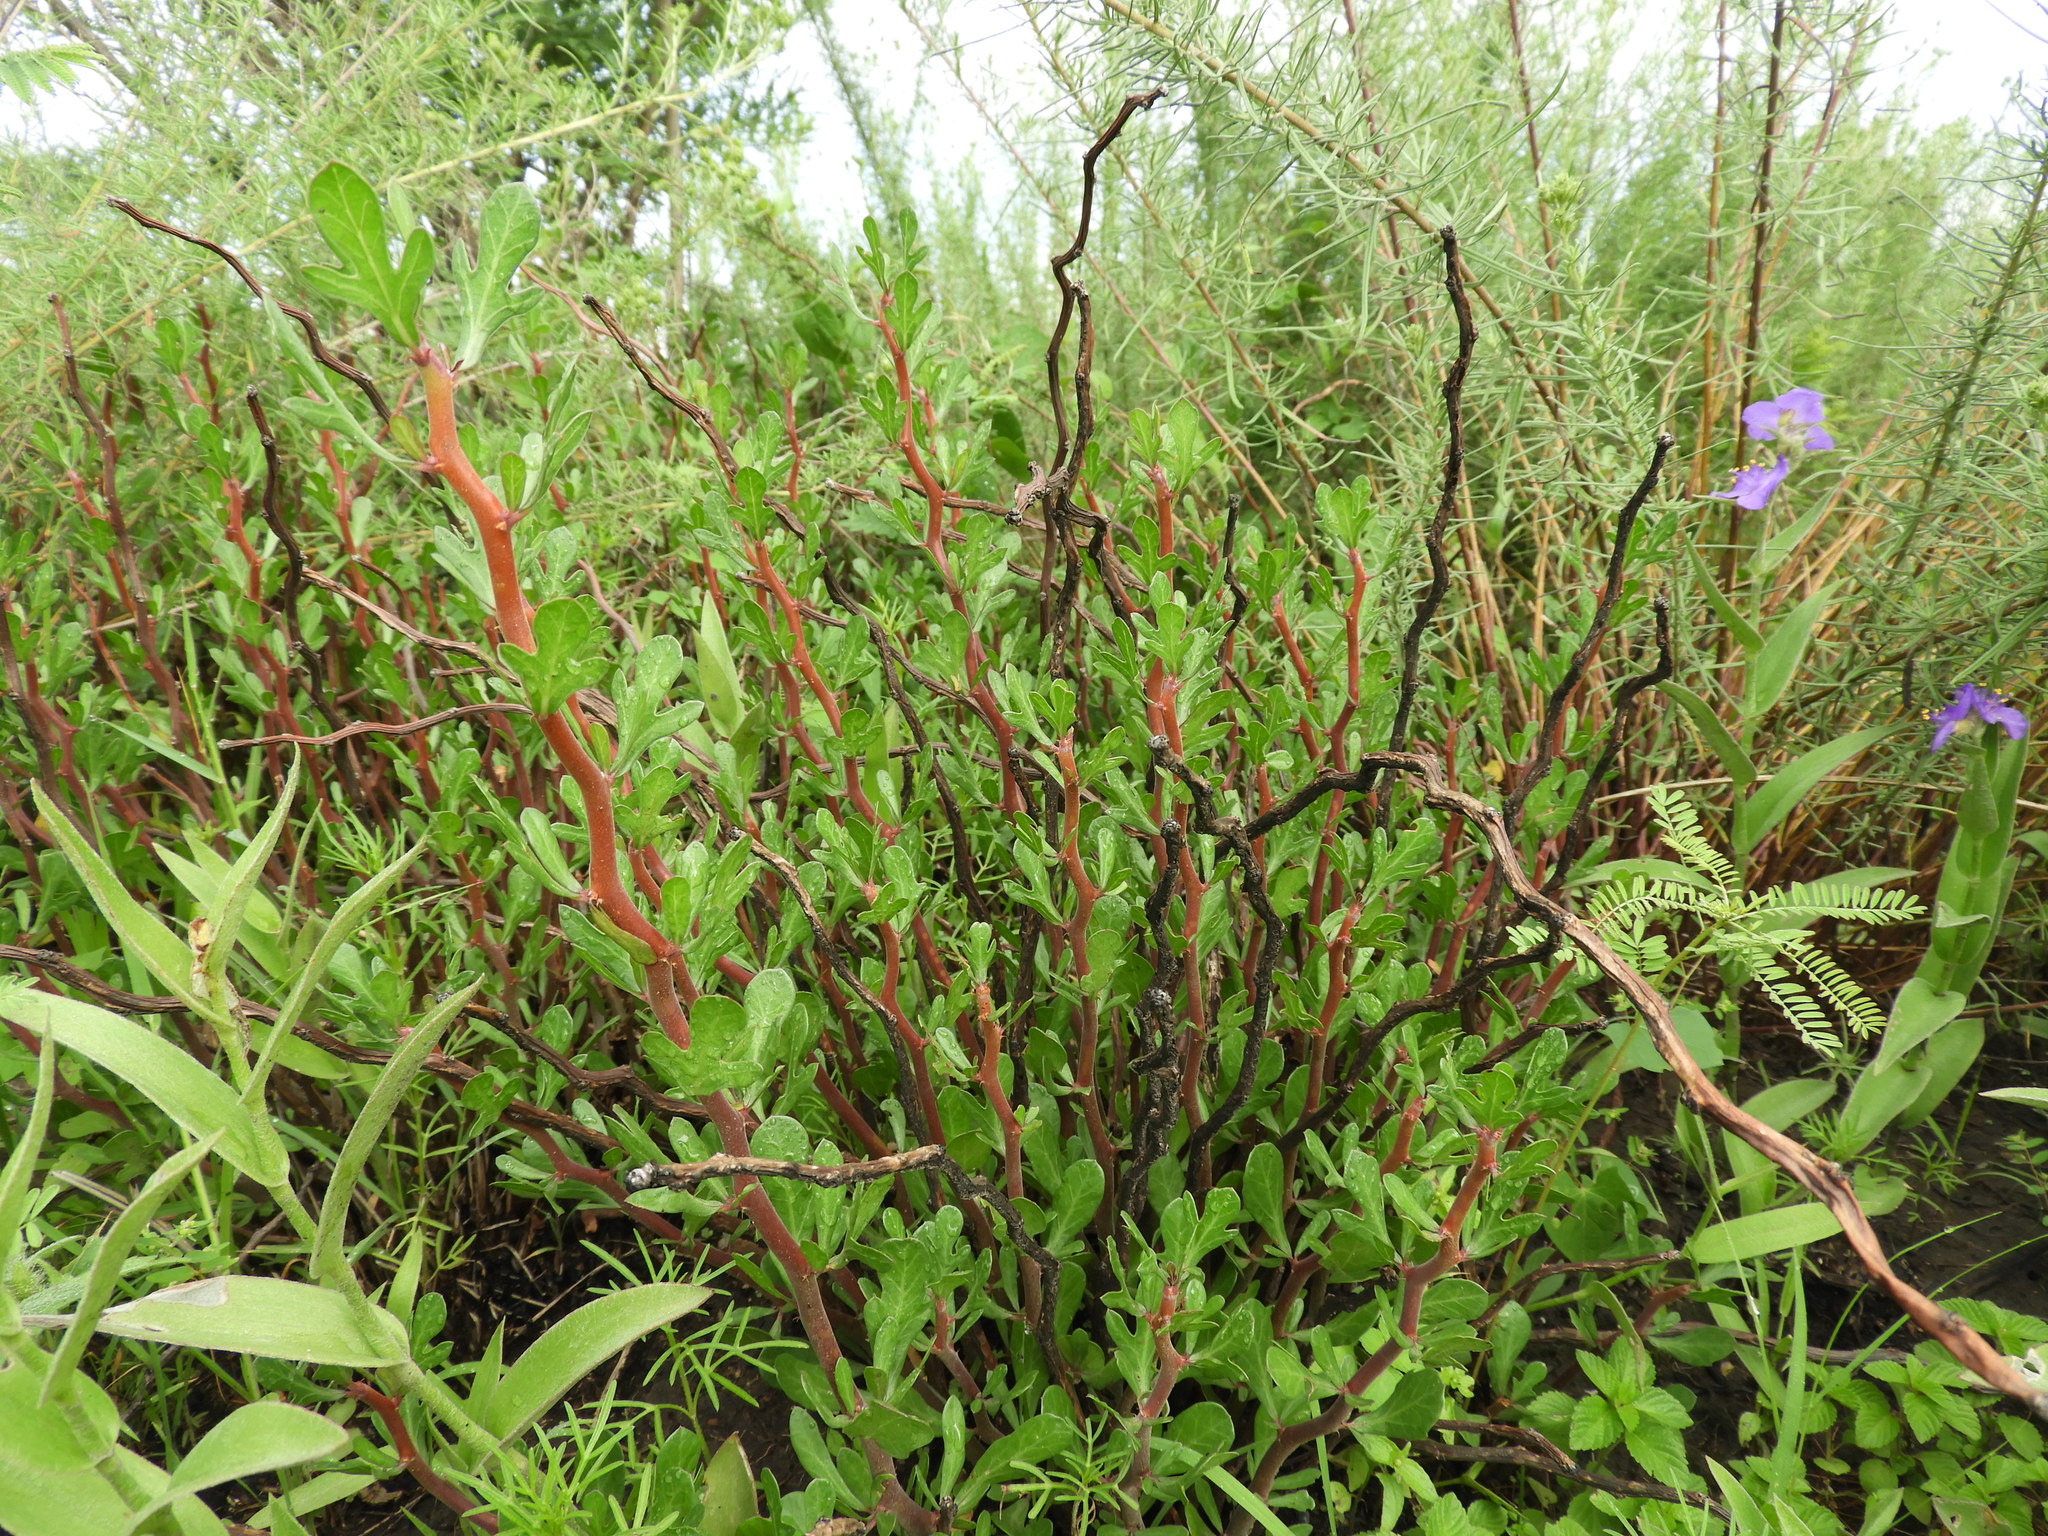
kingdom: Plantae
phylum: Tracheophyta
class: Magnoliopsida
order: Malpighiales
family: Euphorbiaceae
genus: Jatropha
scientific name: Jatropha dioica
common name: Leatherstem
